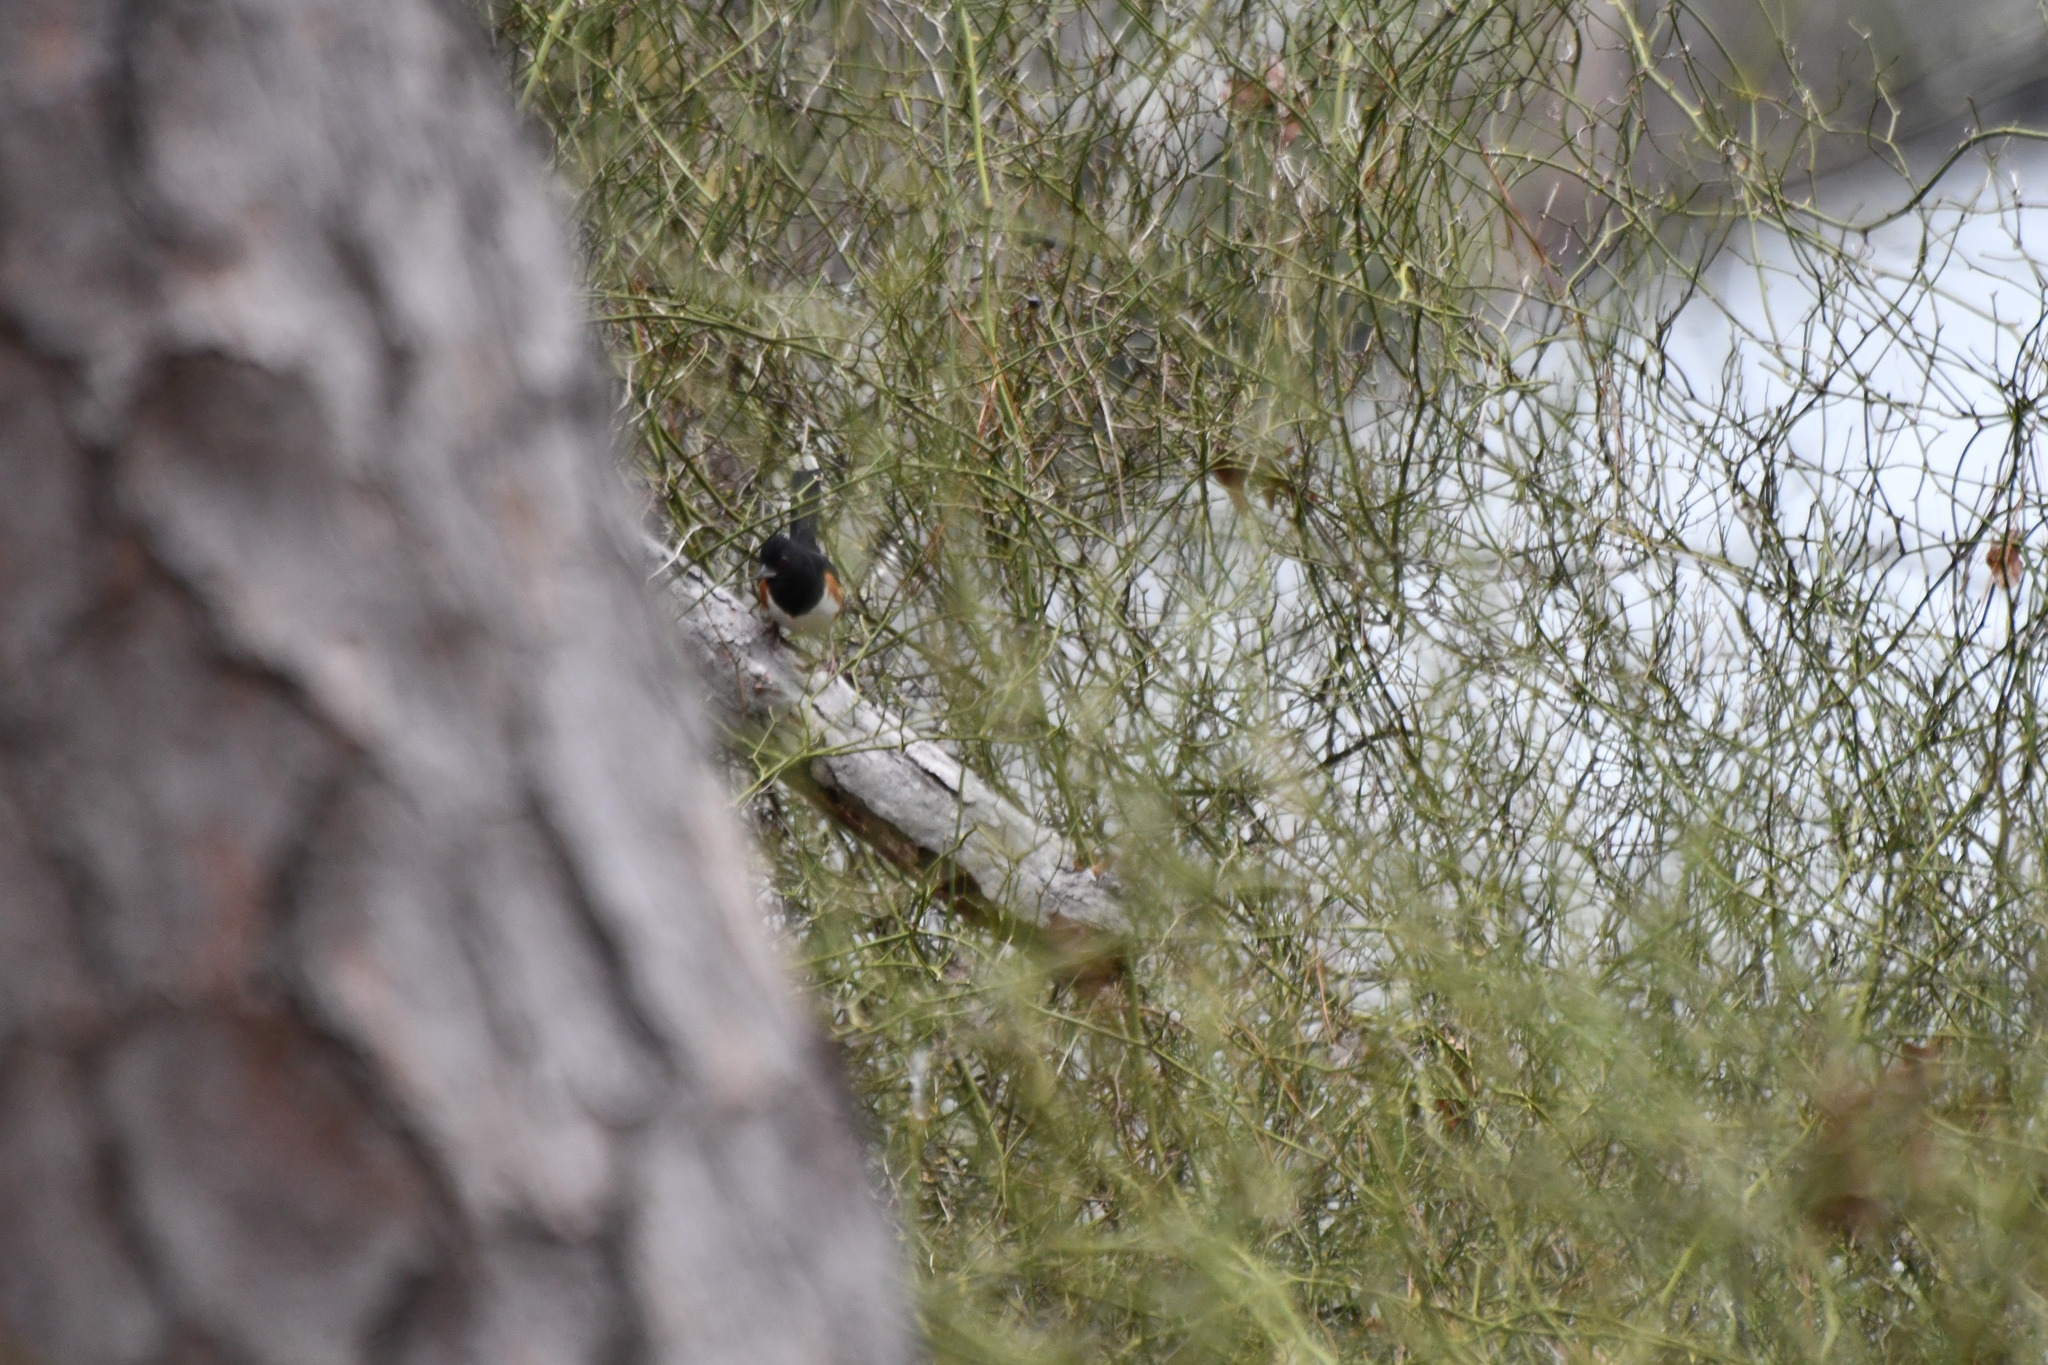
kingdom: Animalia
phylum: Chordata
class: Aves
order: Passeriformes
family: Passerellidae
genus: Pipilo
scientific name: Pipilo erythrophthalmus
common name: Eastern towhee
